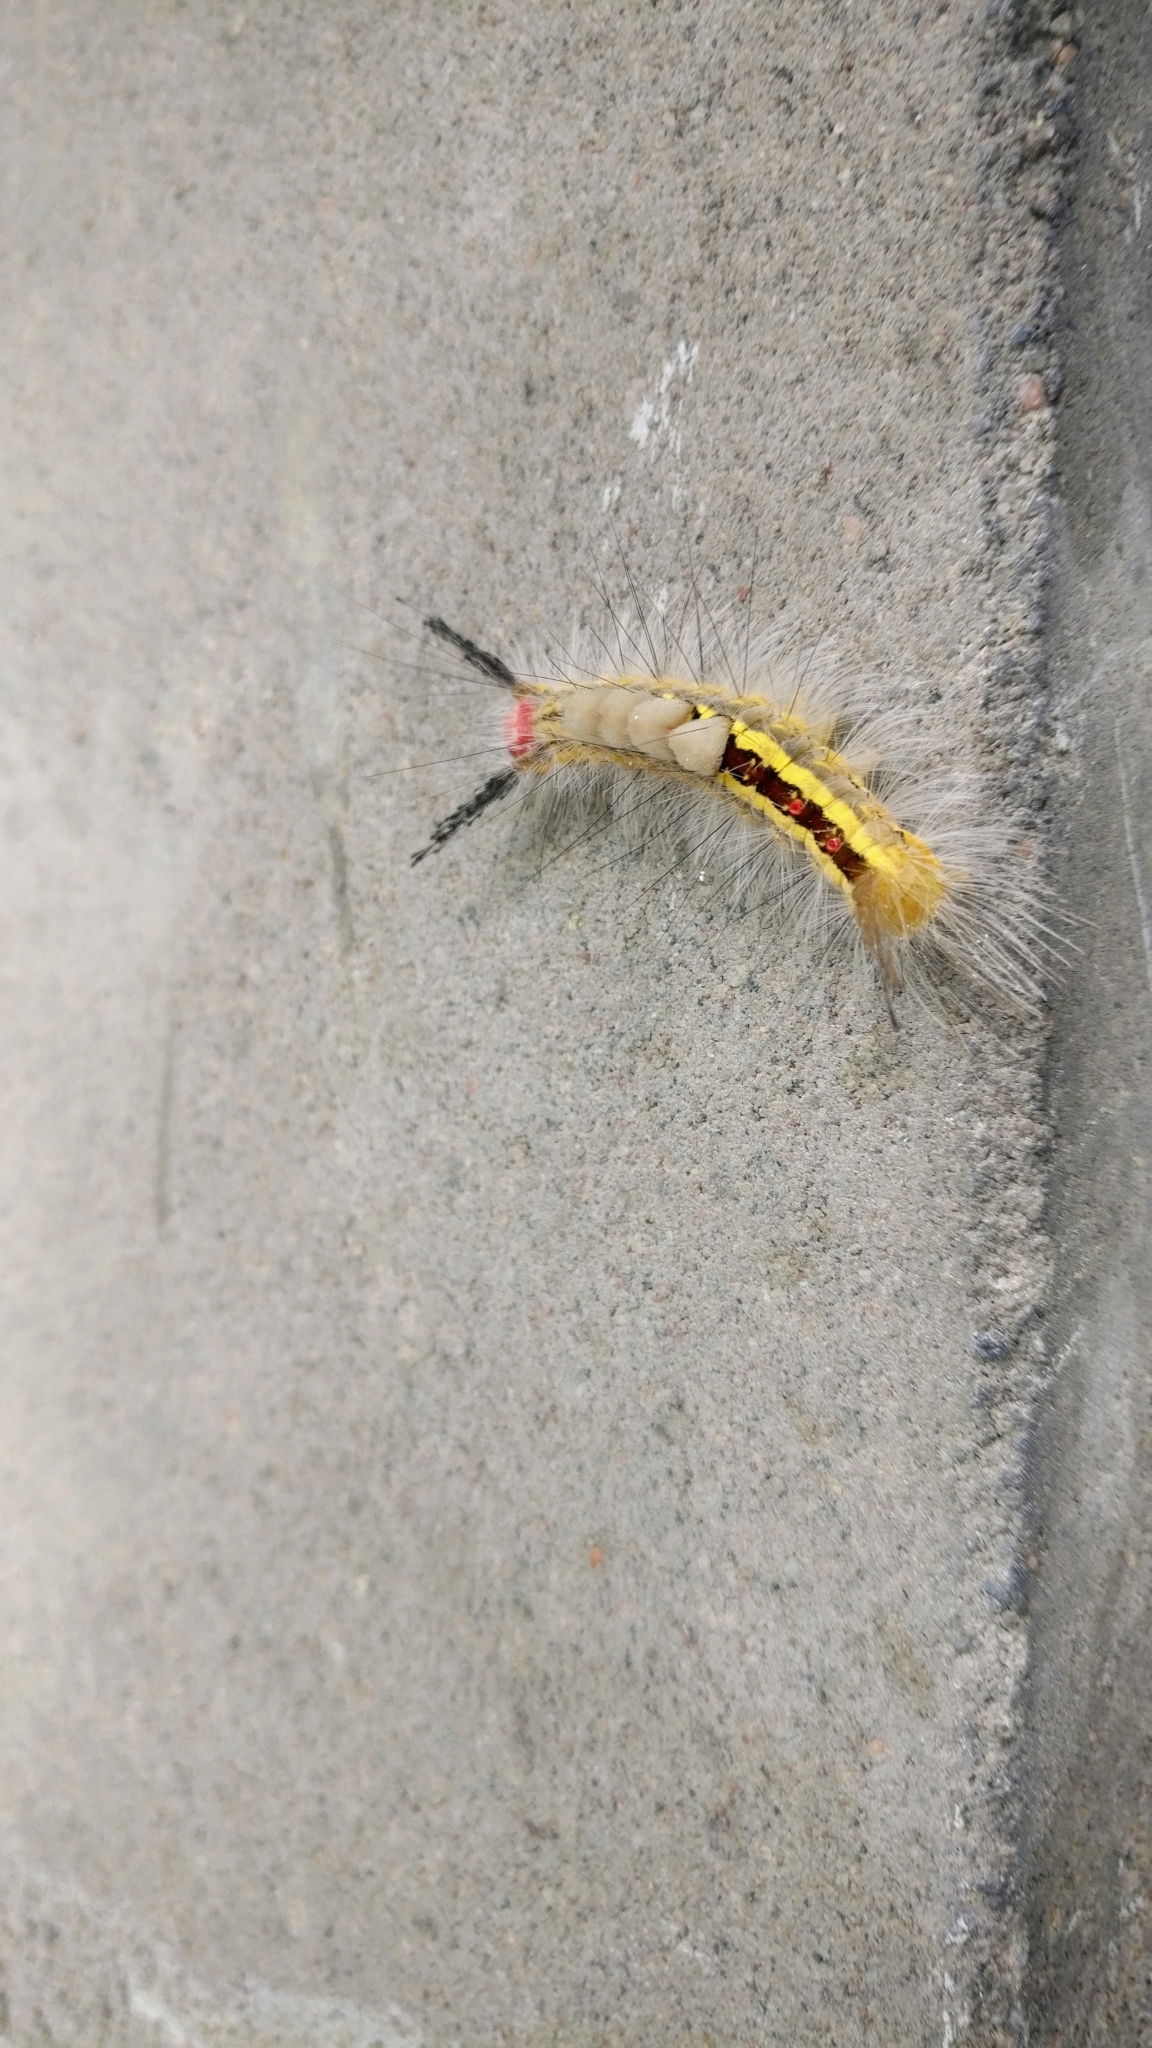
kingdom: Animalia
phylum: Arthropoda
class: Insecta
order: Lepidoptera
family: Erebidae
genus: Orgyia
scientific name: Orgyia leucostigma
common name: White-marked tussock moth
